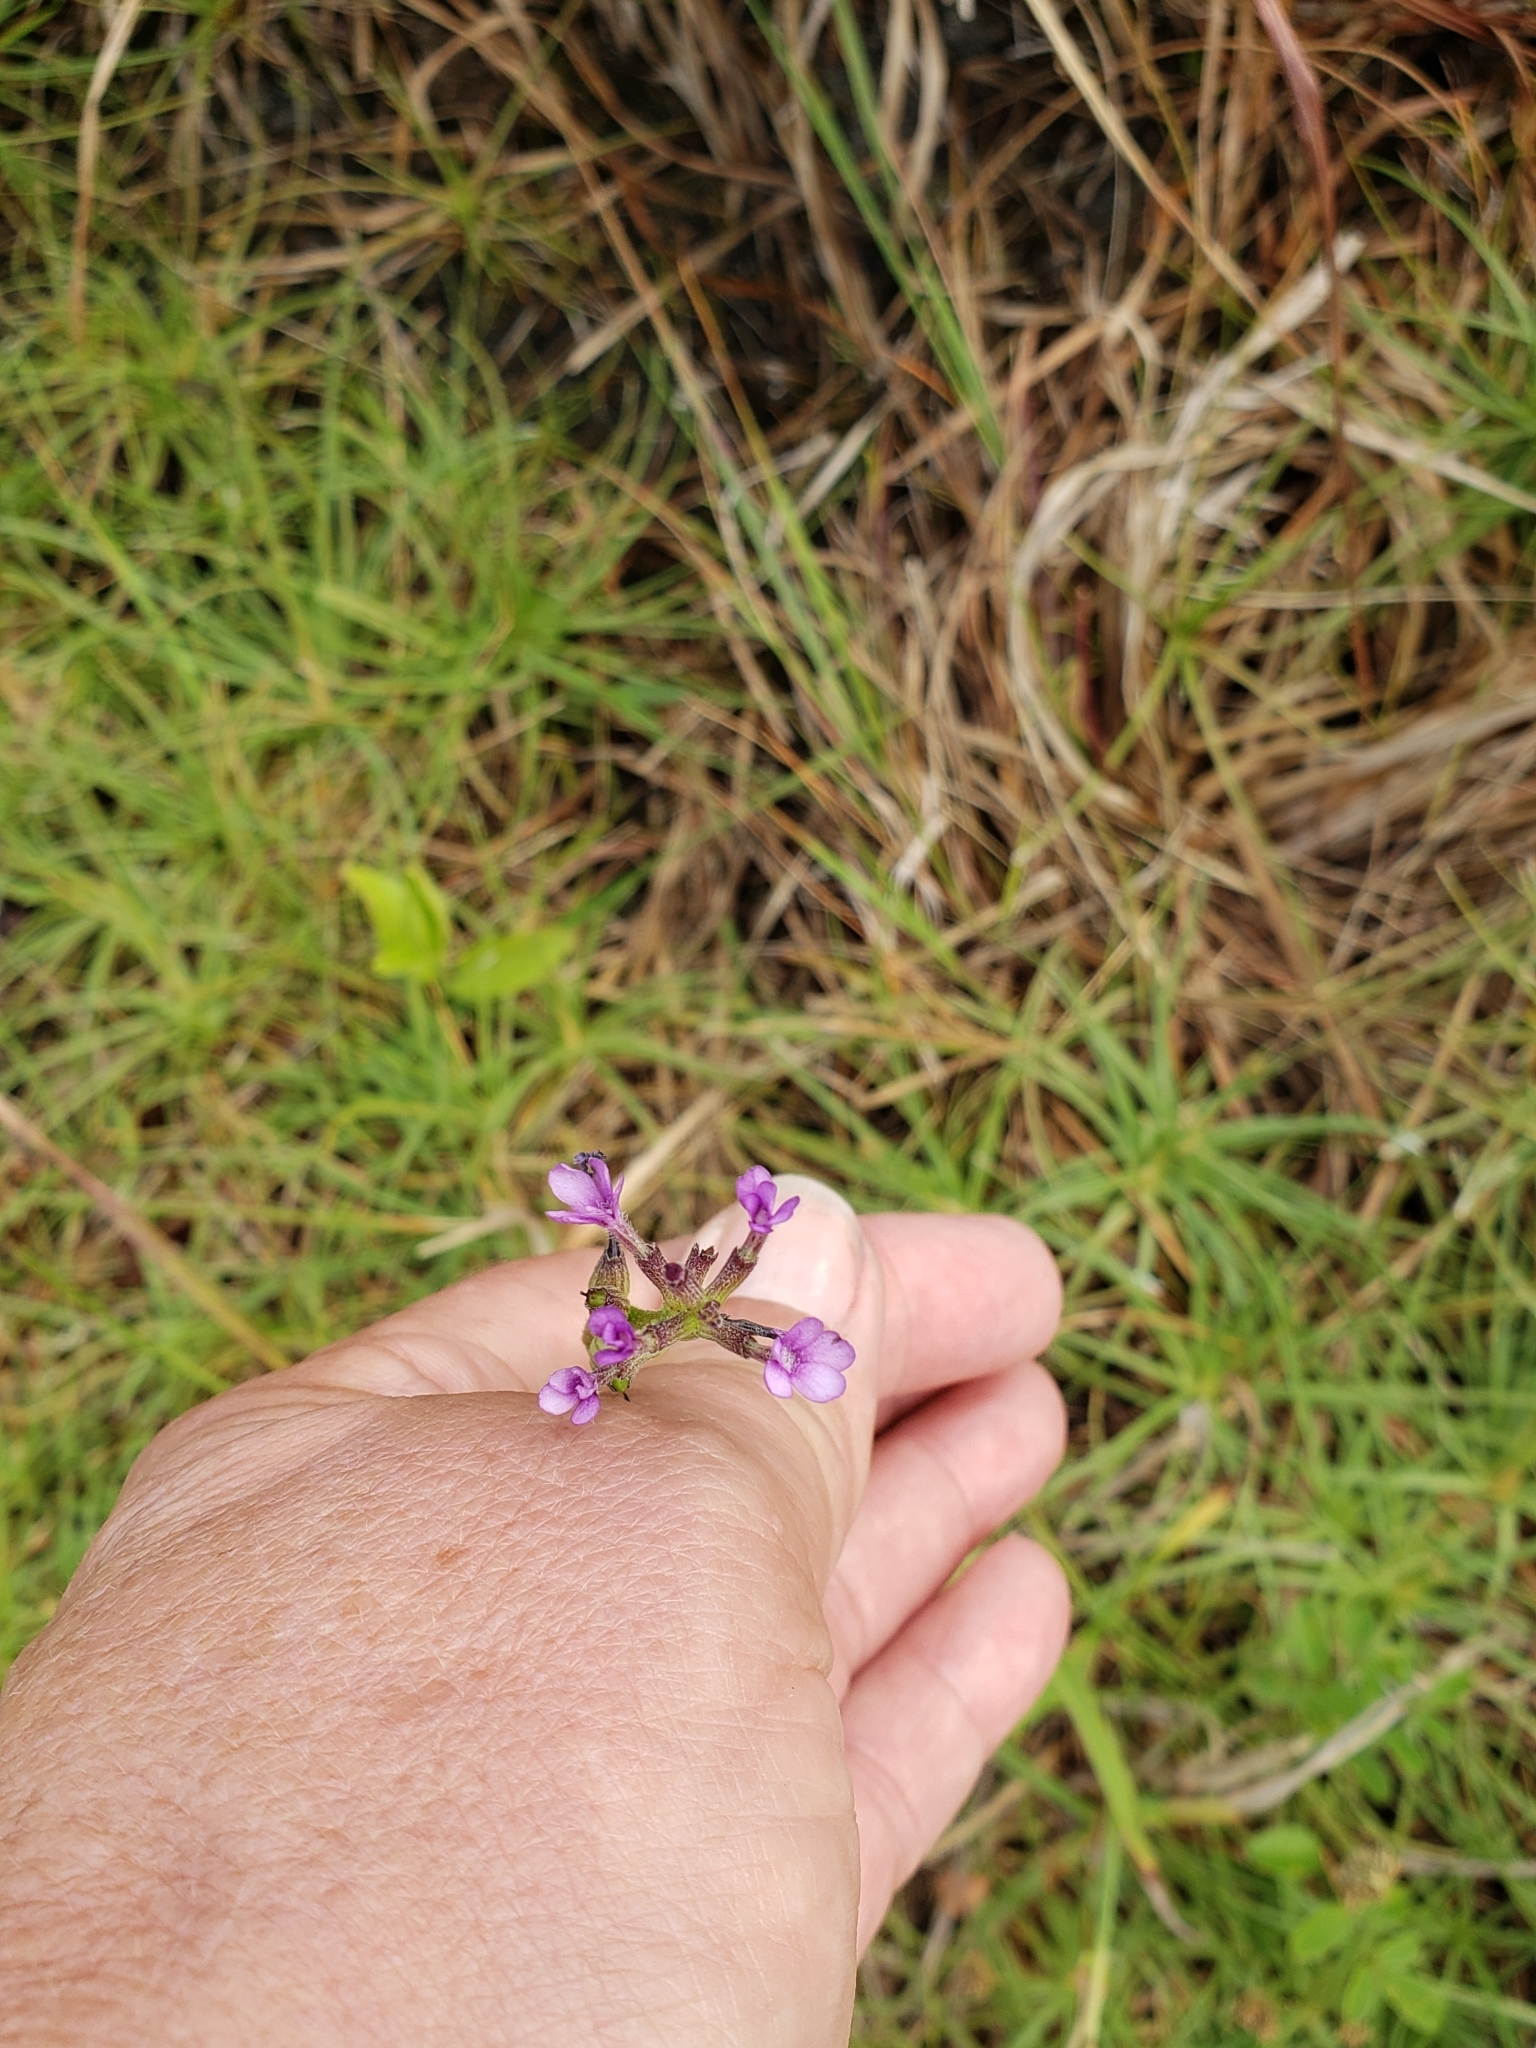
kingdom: Plantae
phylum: Tracheophyta
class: Magnoliopsida
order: Lamiales
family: Orobanchaceae
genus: Buchnera
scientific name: Buchnera floridana
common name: Florida bluehearts
